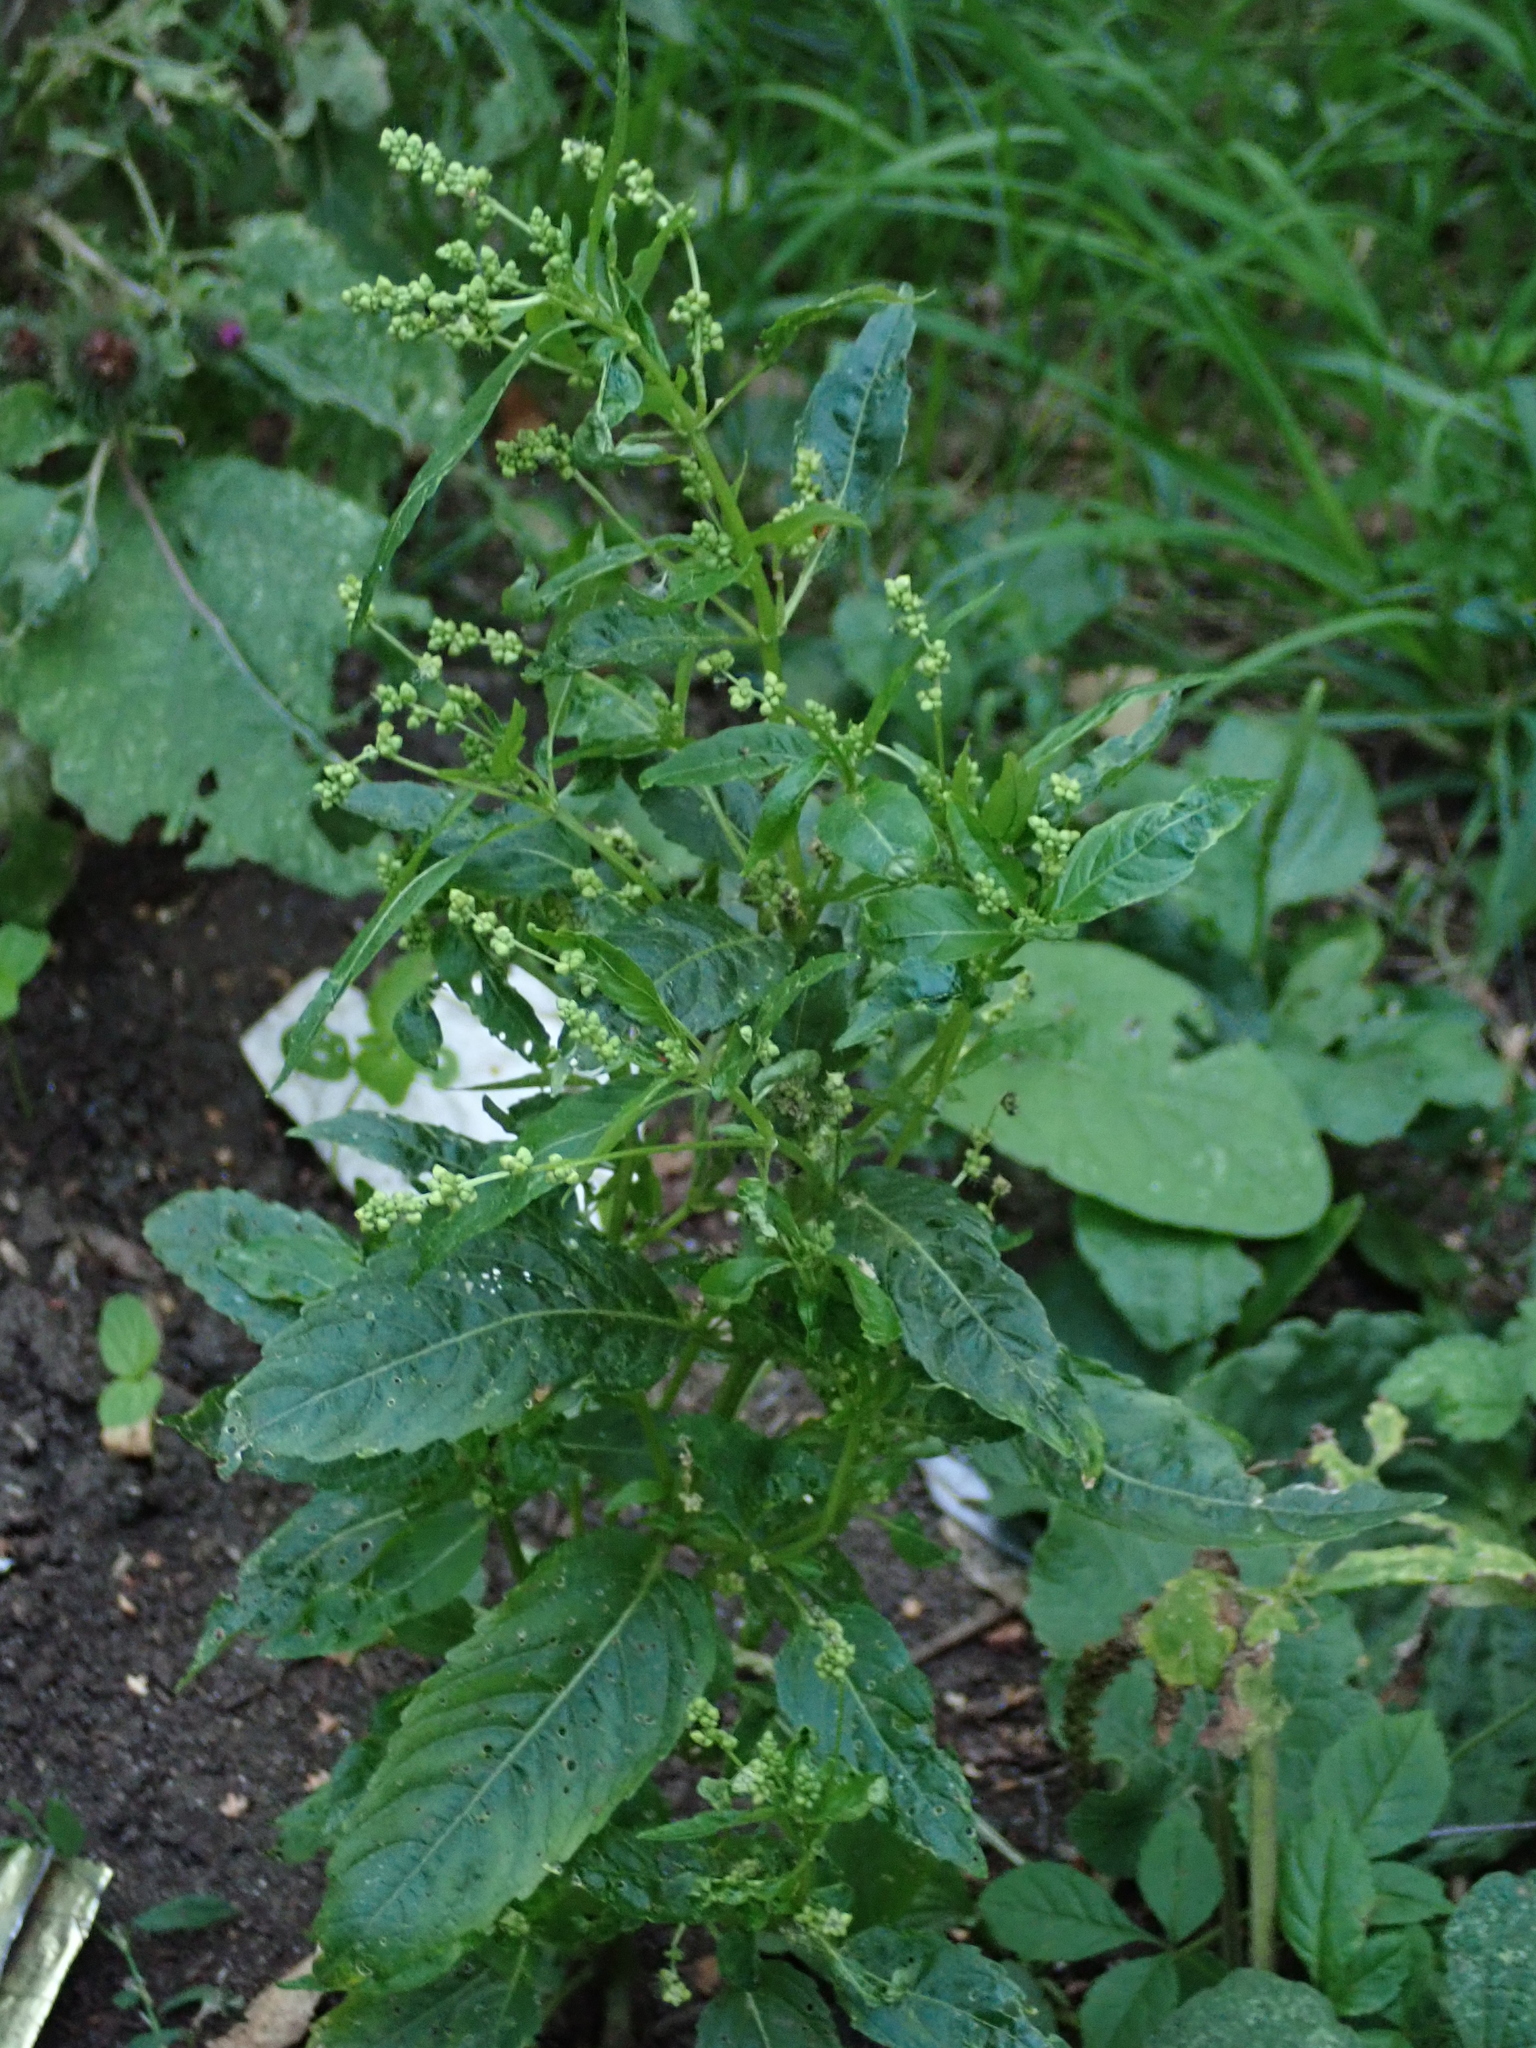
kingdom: Plantae
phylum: Tracheophyta
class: Magnoliopsida
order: Malpighiales
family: Euphorbiaceae
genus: Mercurialis
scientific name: Mercurialis annua
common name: Annual mercury
